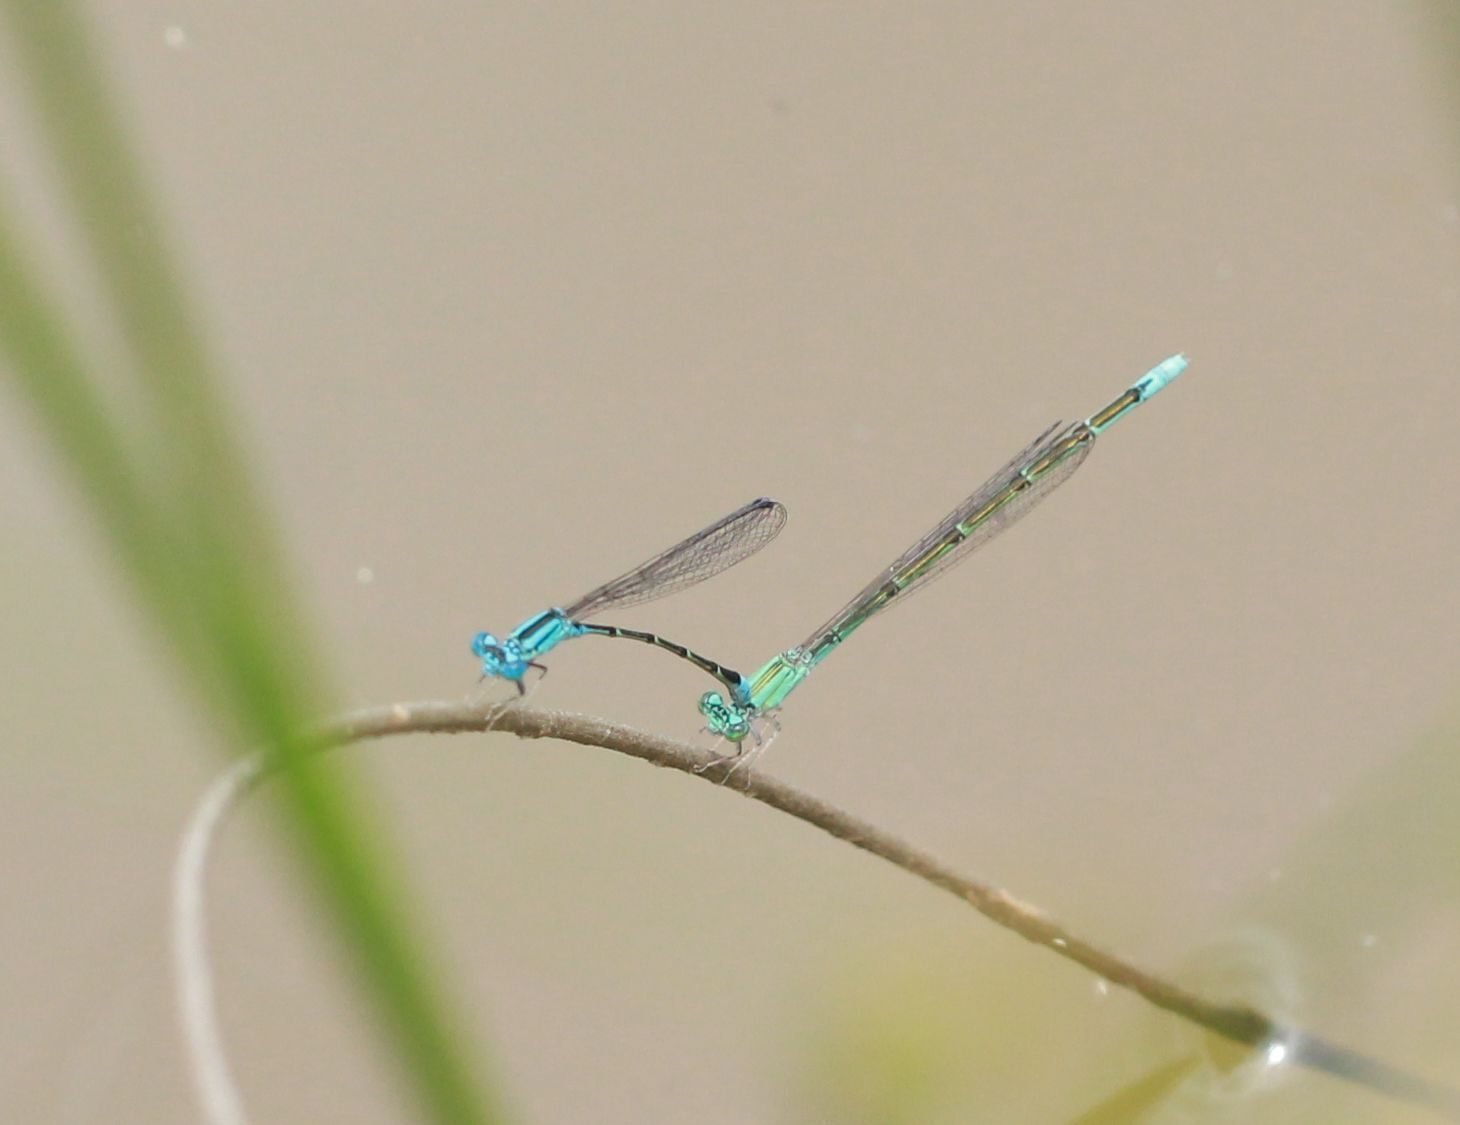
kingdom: Animalia
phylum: Arthropoda
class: Insecta
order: Odonata
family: Coenagrionidae
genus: Enallagma
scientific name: Enallagma traviatum
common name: Slender bluet
